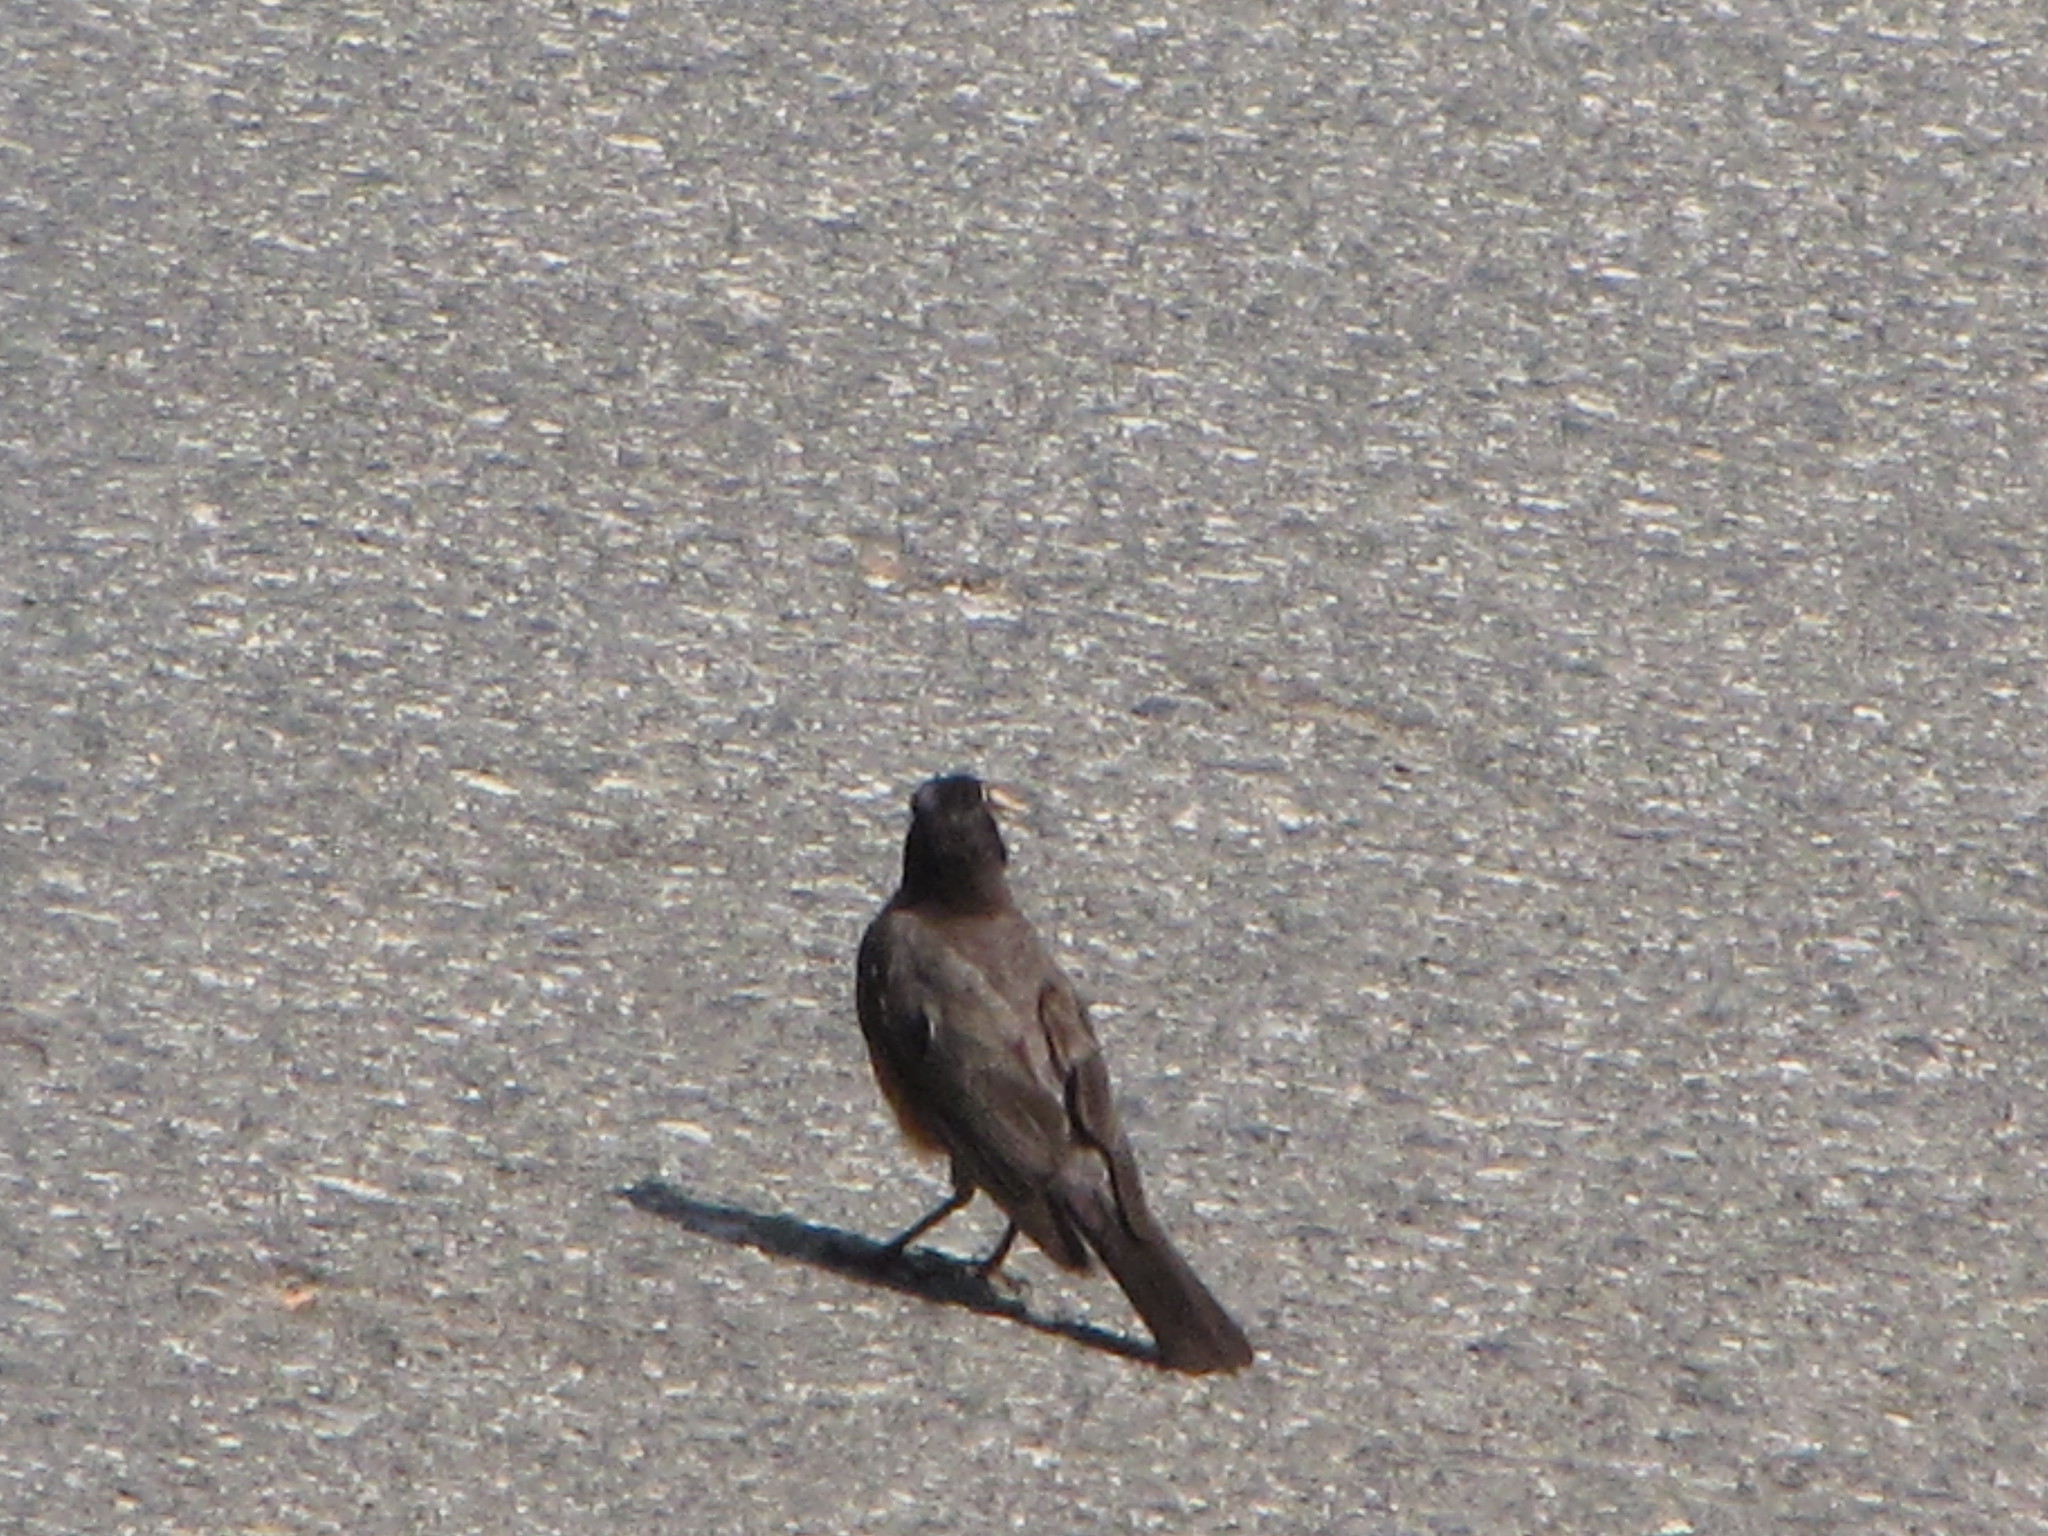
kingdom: Animalia
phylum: Chordata
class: Aves
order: Passeriformes
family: Turdidae
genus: Turdus
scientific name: Turdus migratorius
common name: American robin
